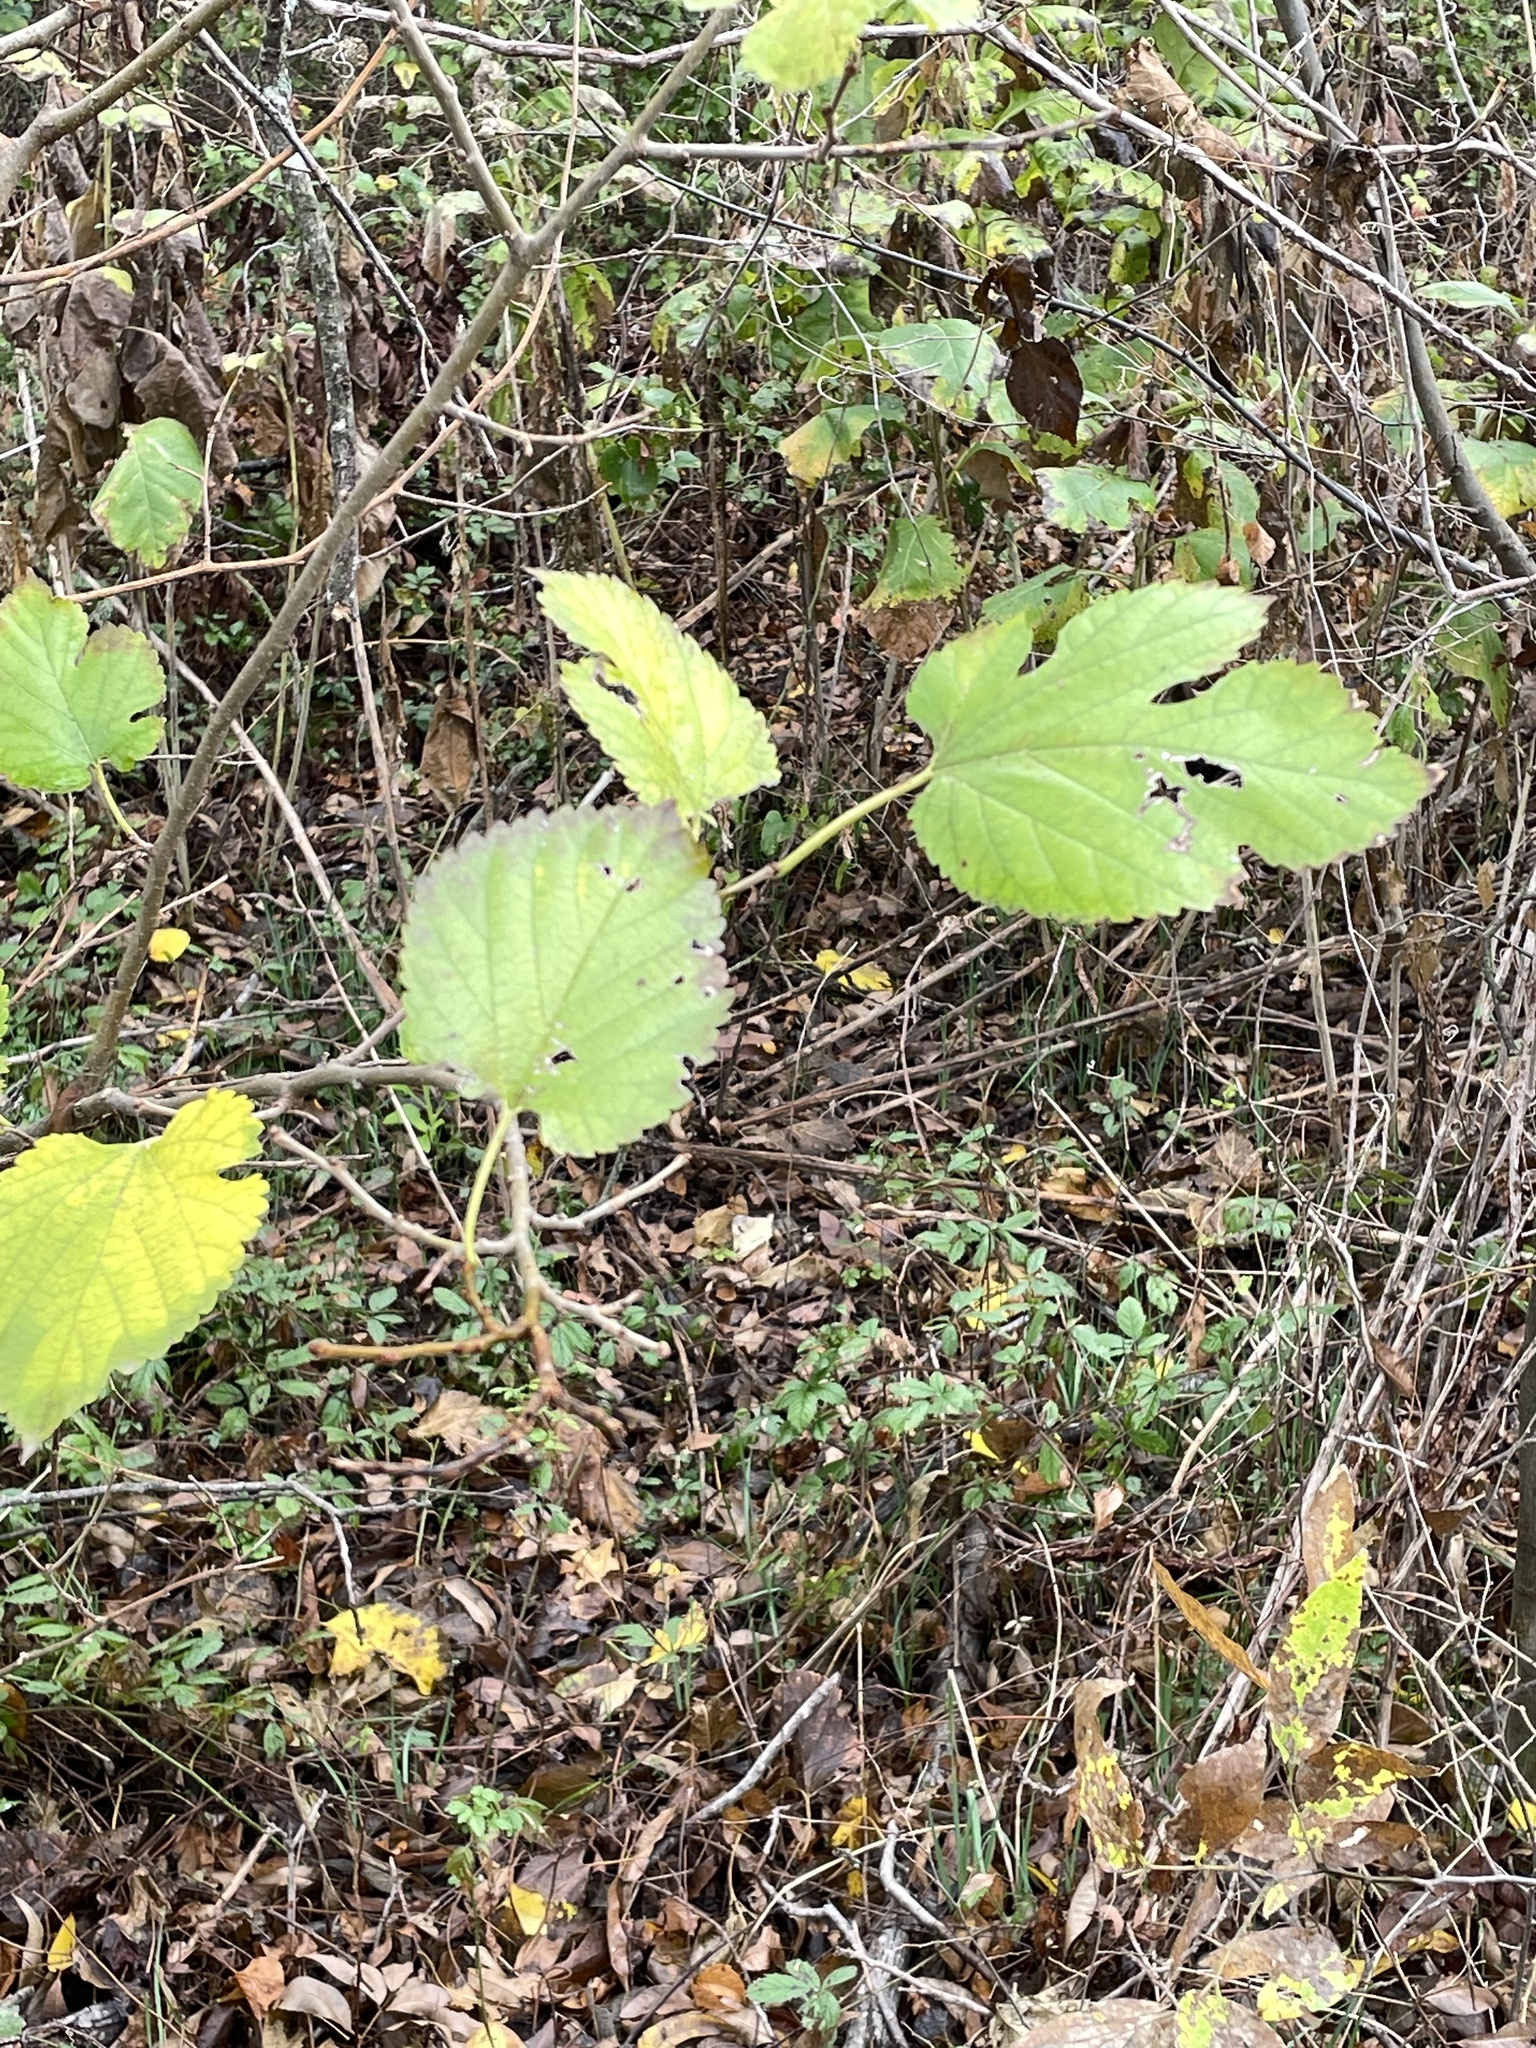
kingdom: Plantae
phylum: Tracheophyta
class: Magnoliopsida
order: Rosales
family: Moraceae
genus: Morus
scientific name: Morus alba
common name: White mulberry
